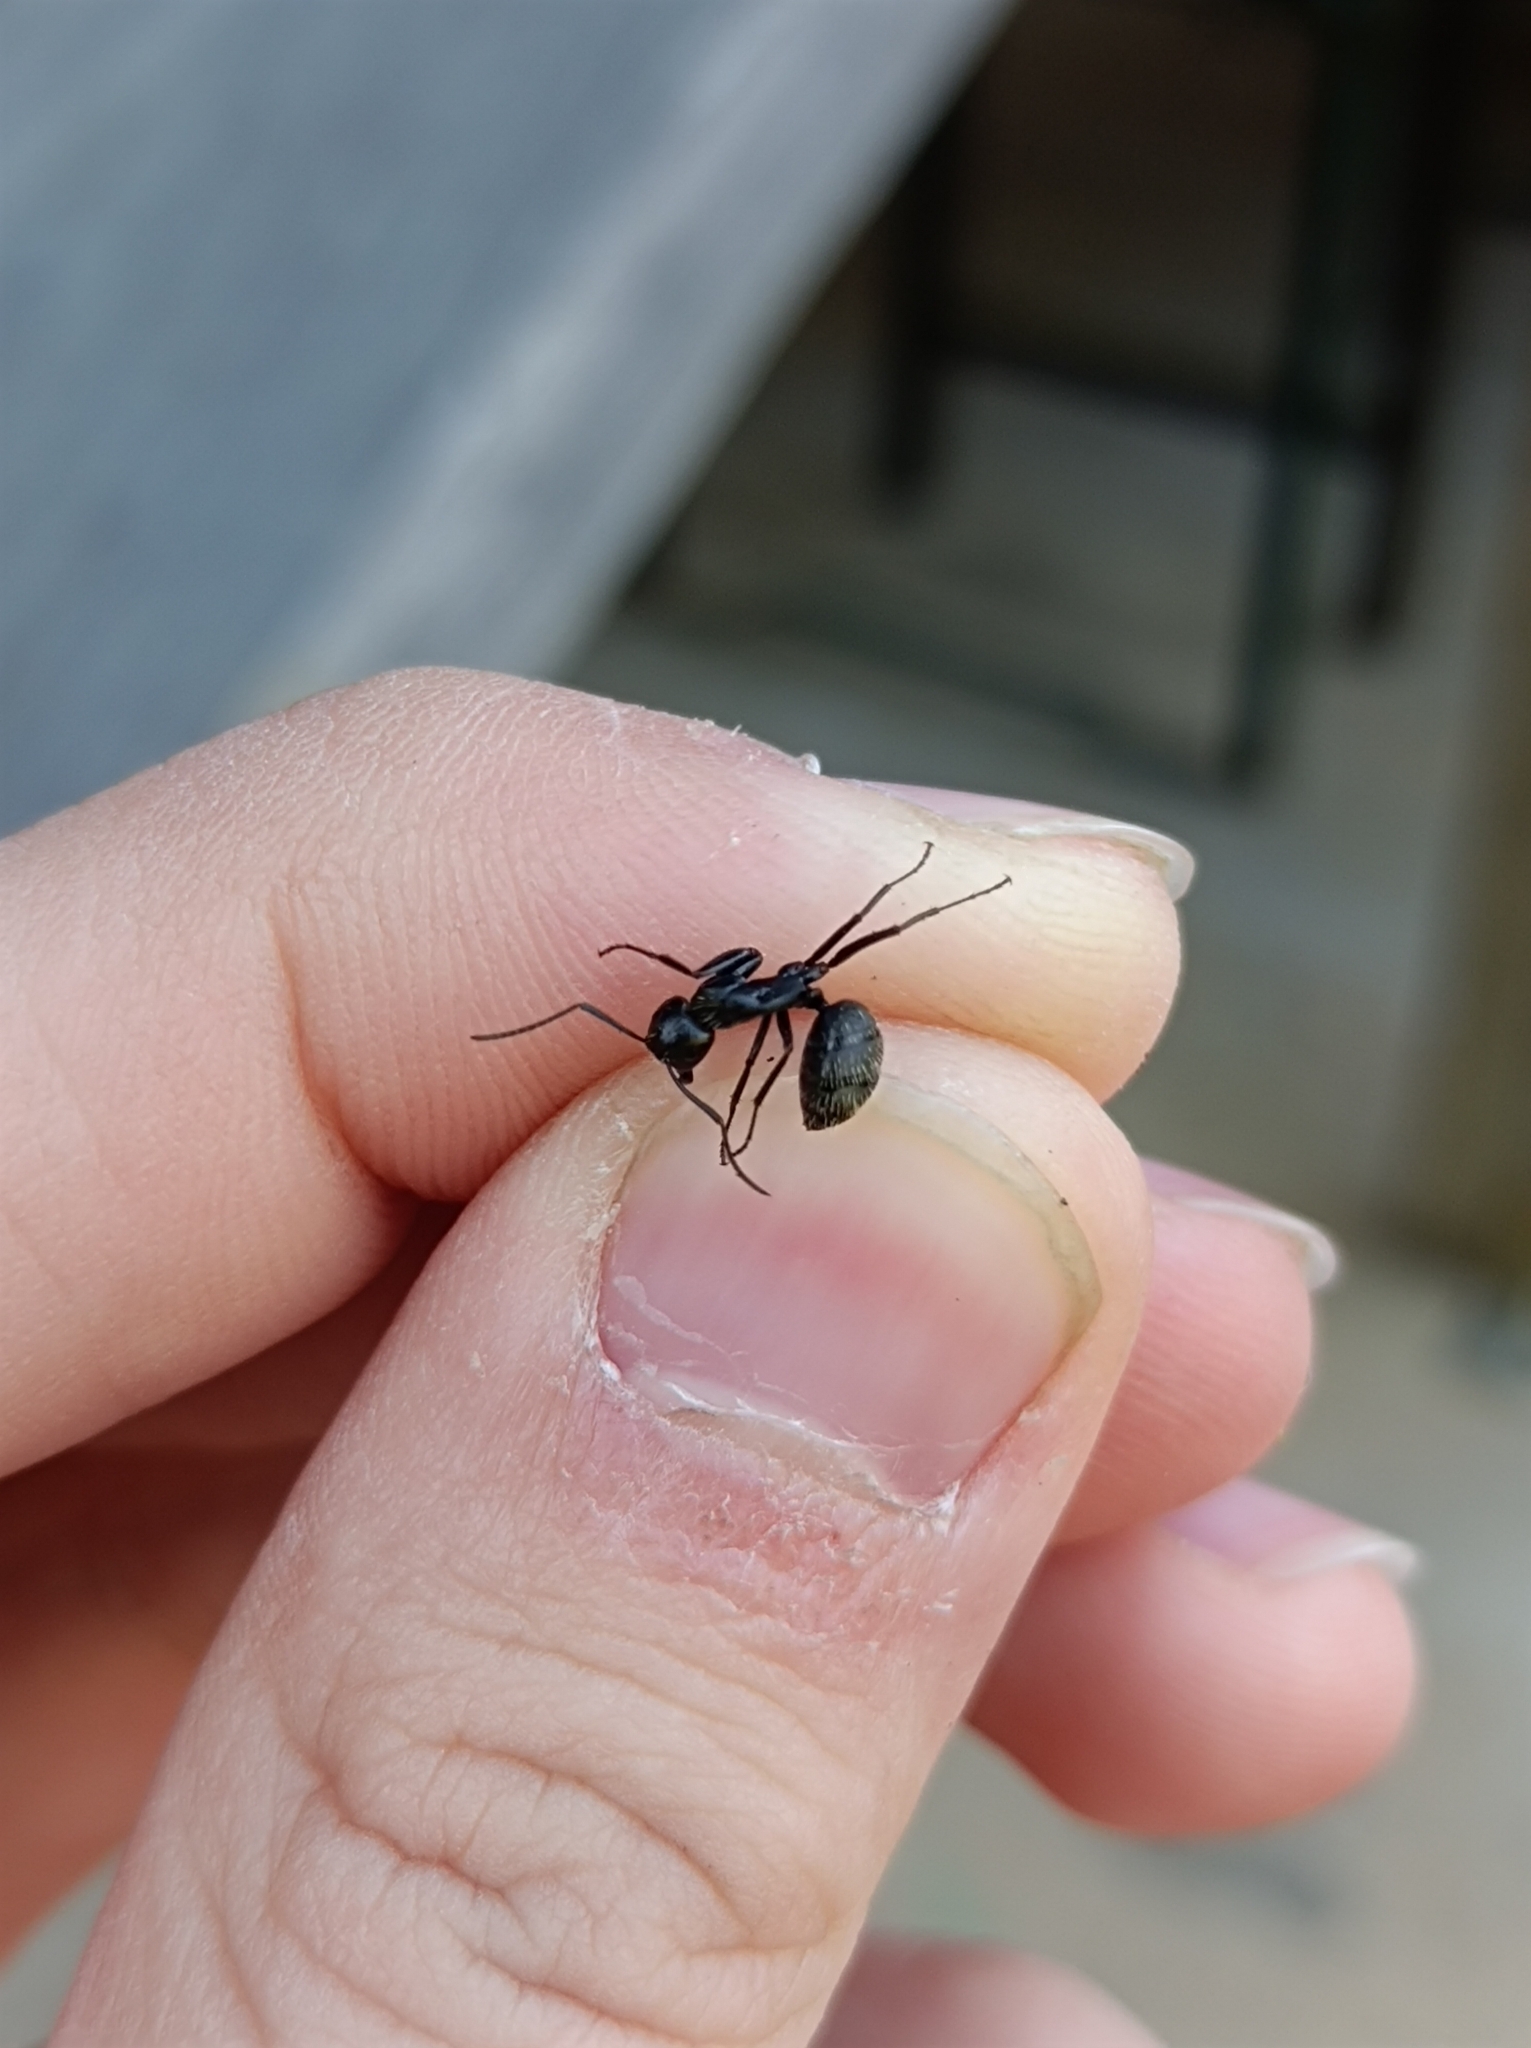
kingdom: Animalia
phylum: Arthropoda
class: Insecta
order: Hymenoptera
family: Formicidae
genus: Camponotus
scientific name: Camponotus vagus
